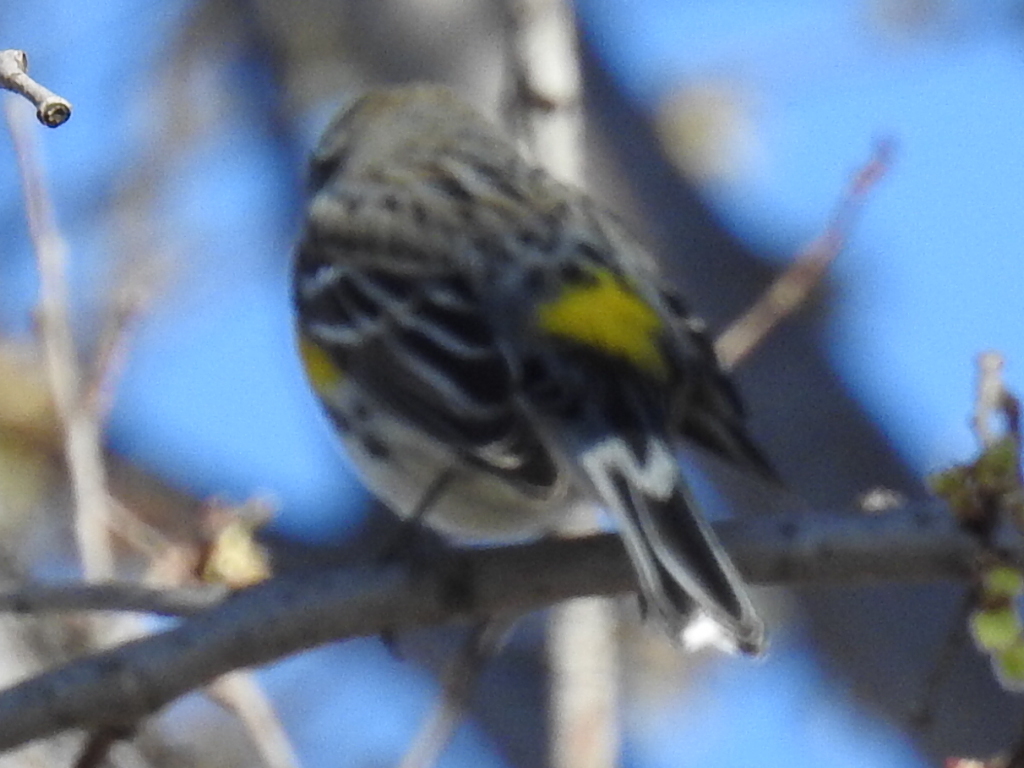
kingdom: Animalia
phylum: Chordata
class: Aves
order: Passeriformes
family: Parulidae
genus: Setophaga
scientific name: Setophaga coronata
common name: Myrtle warbler
